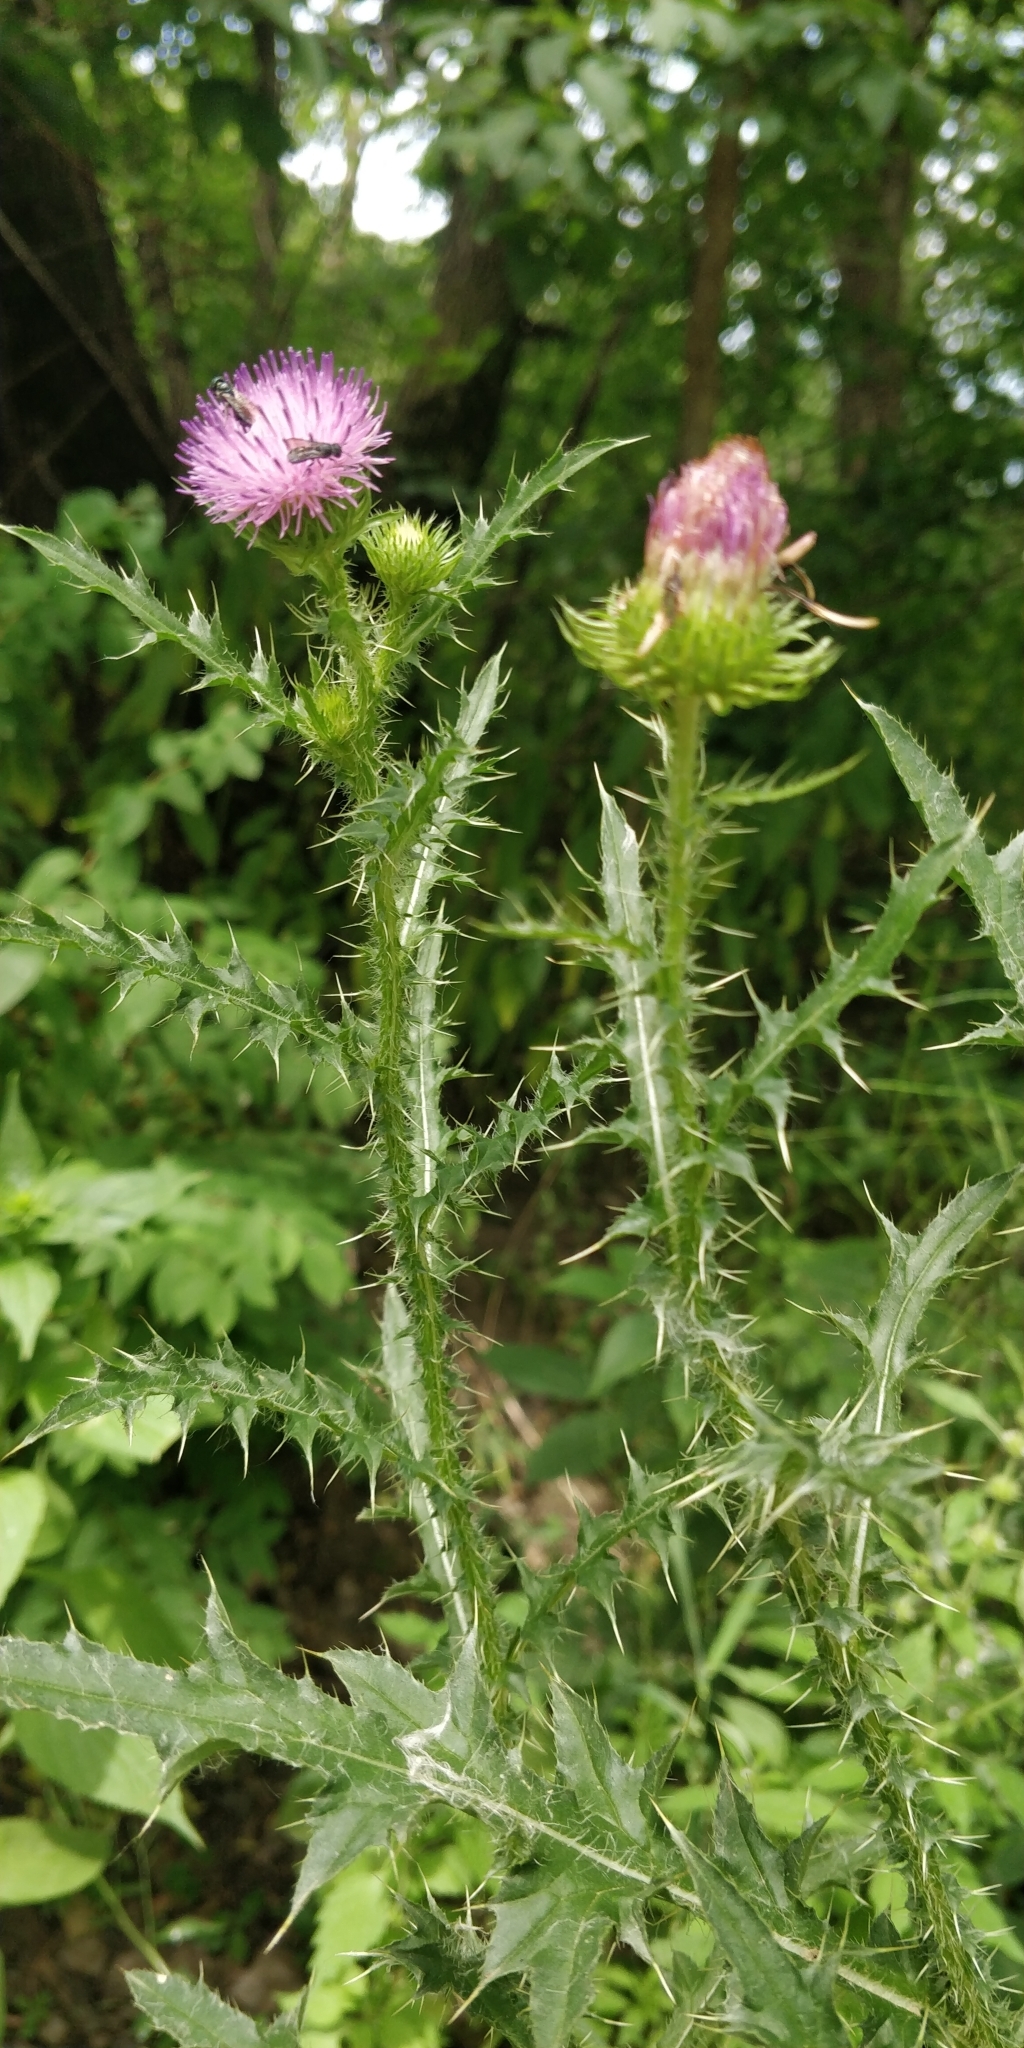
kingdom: Plantae
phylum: Tracheophyta
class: Magnoliopsida
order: Asterales
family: Asteraceae
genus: Carduus
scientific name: Carduus acanthoides
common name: Plumeless thistle
